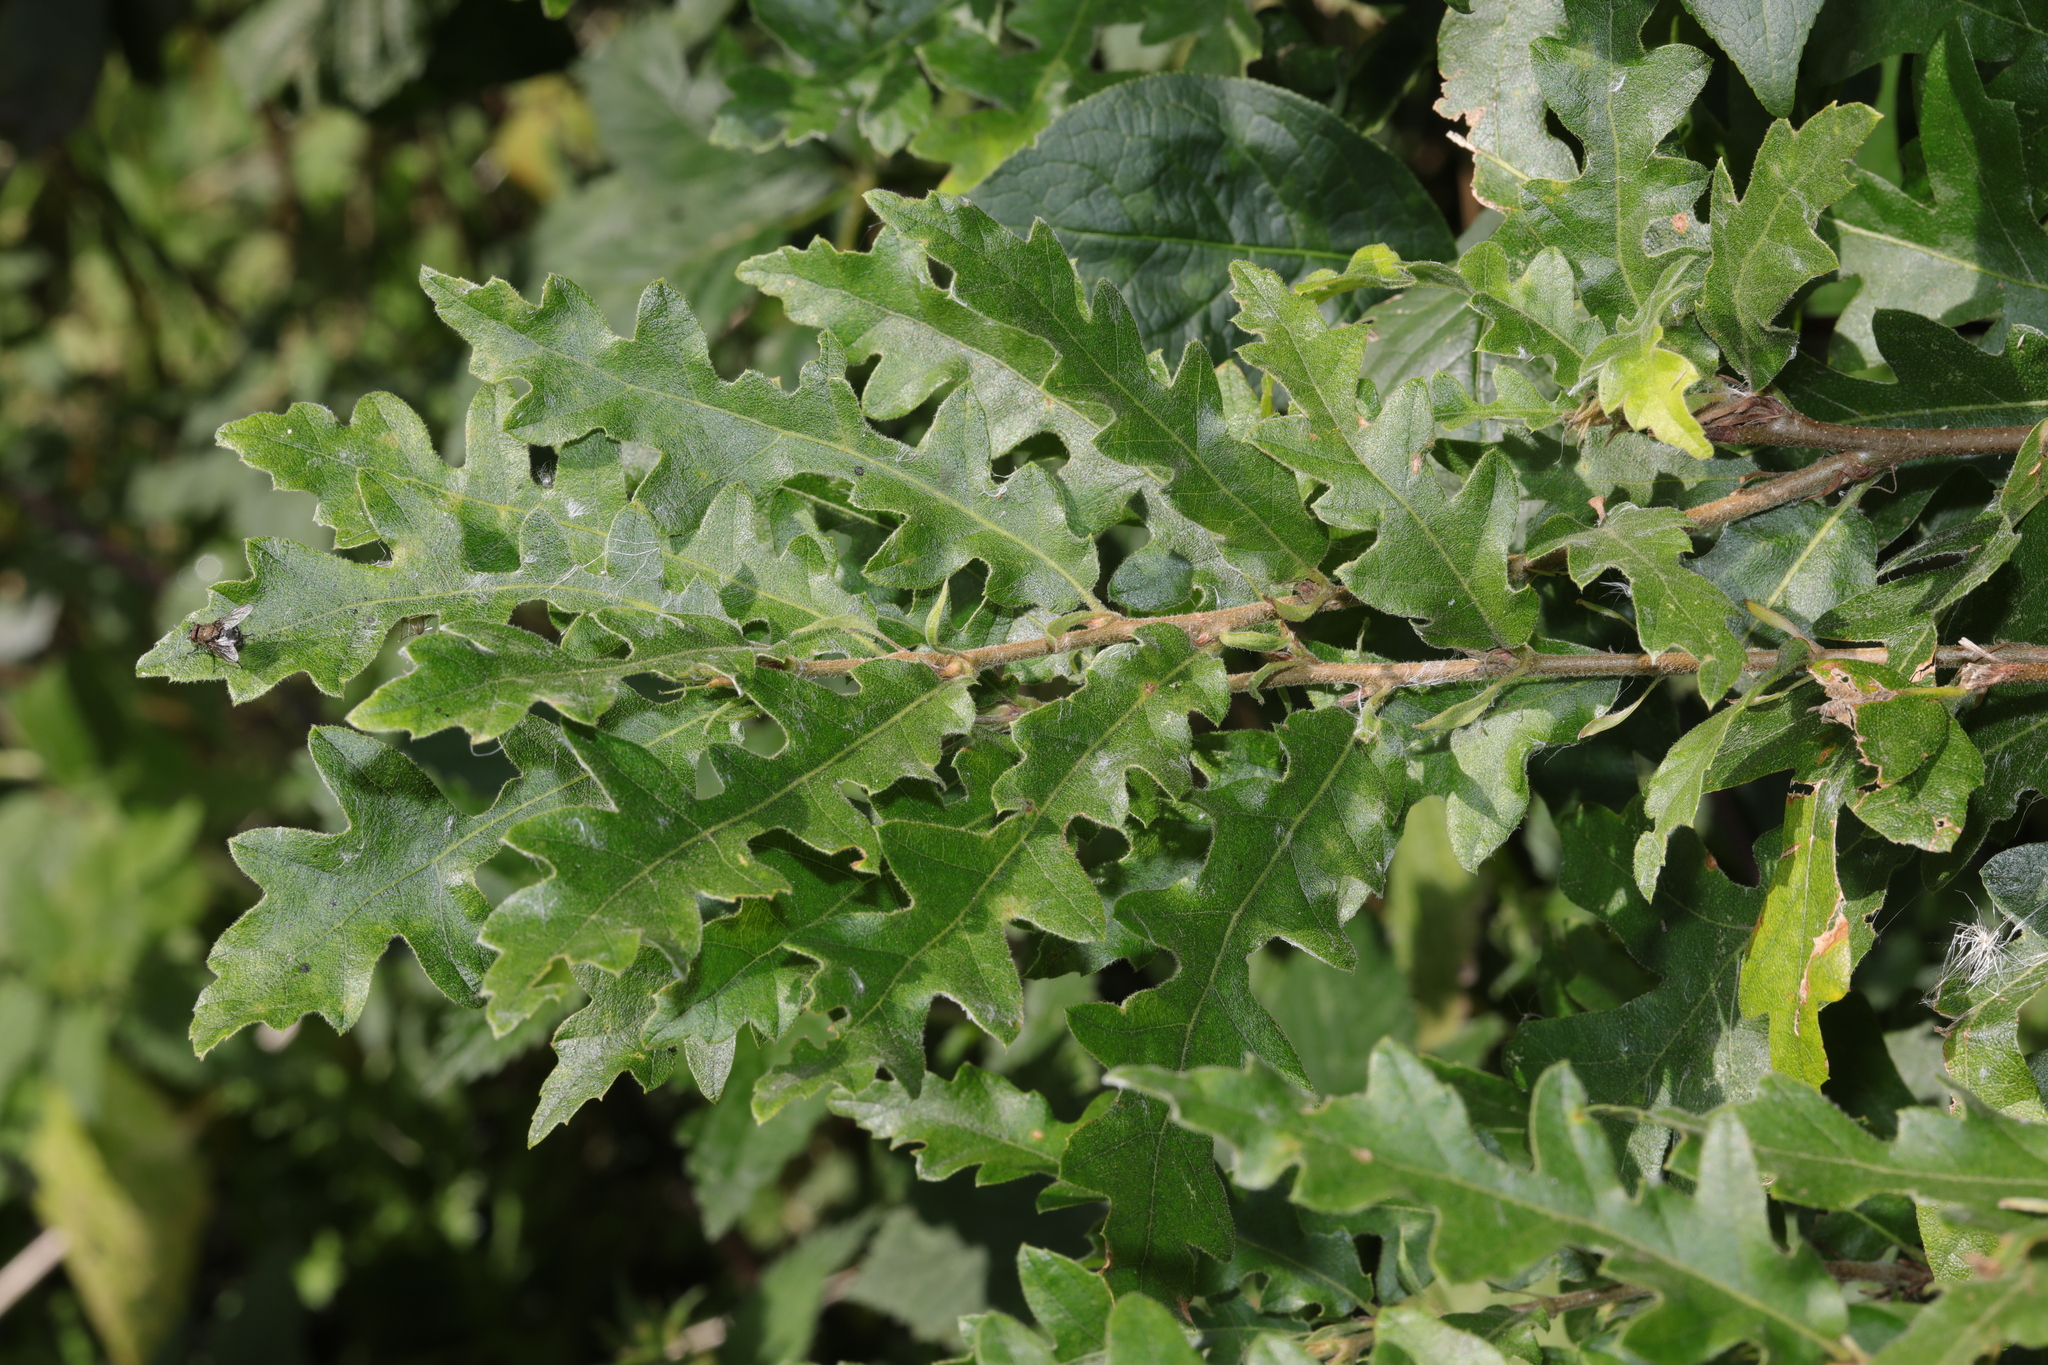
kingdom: Plantae
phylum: Tracheophyta
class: Magnoliopsida
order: Fagales
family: Fagaceae
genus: Quercus
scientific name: Quercus cerris
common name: Turkey oak
